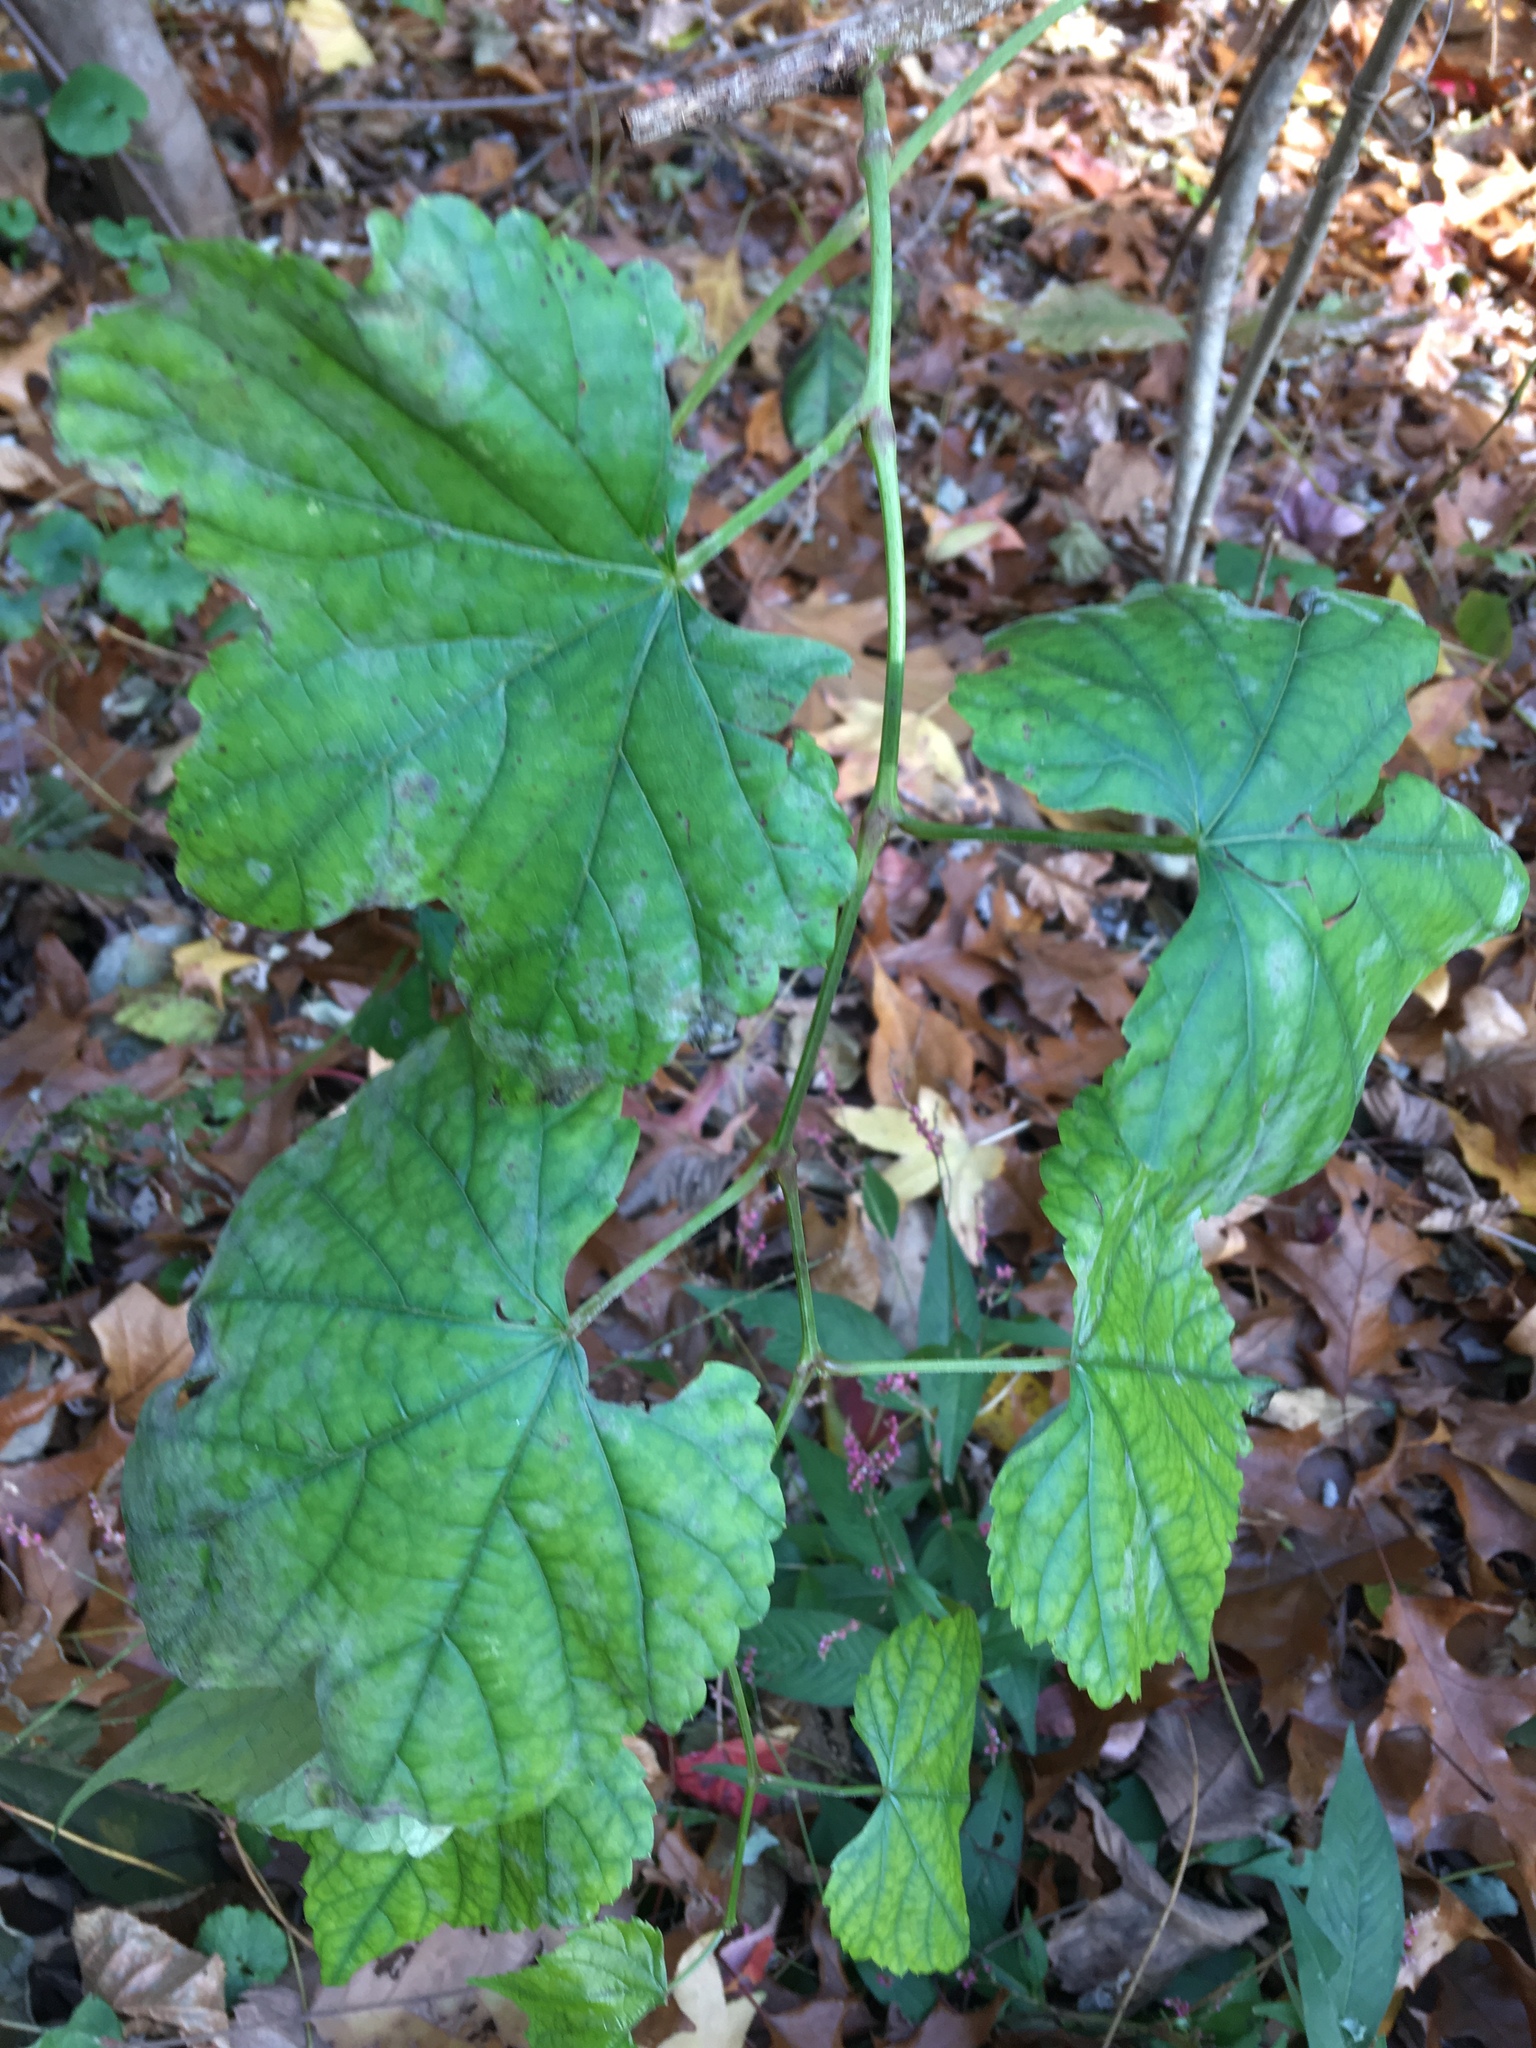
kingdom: Plantae
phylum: Tracheophyta
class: Magnoliopsida
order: Vitales
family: Vitaceae
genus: Ampelopsis
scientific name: Ampelopsis glandulosa
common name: Amur peppervine
